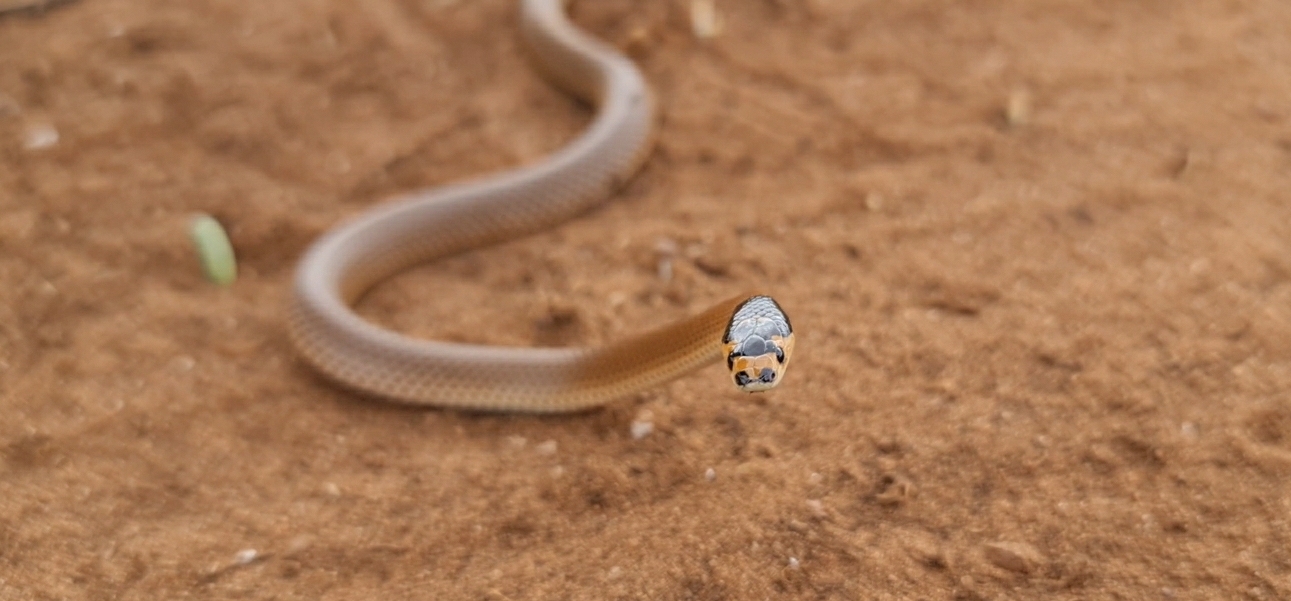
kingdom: Animalia
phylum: Chordata
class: Squamata
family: Elapidae
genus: Suta
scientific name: Suta spectabilis
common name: Bush’s hooded snake
